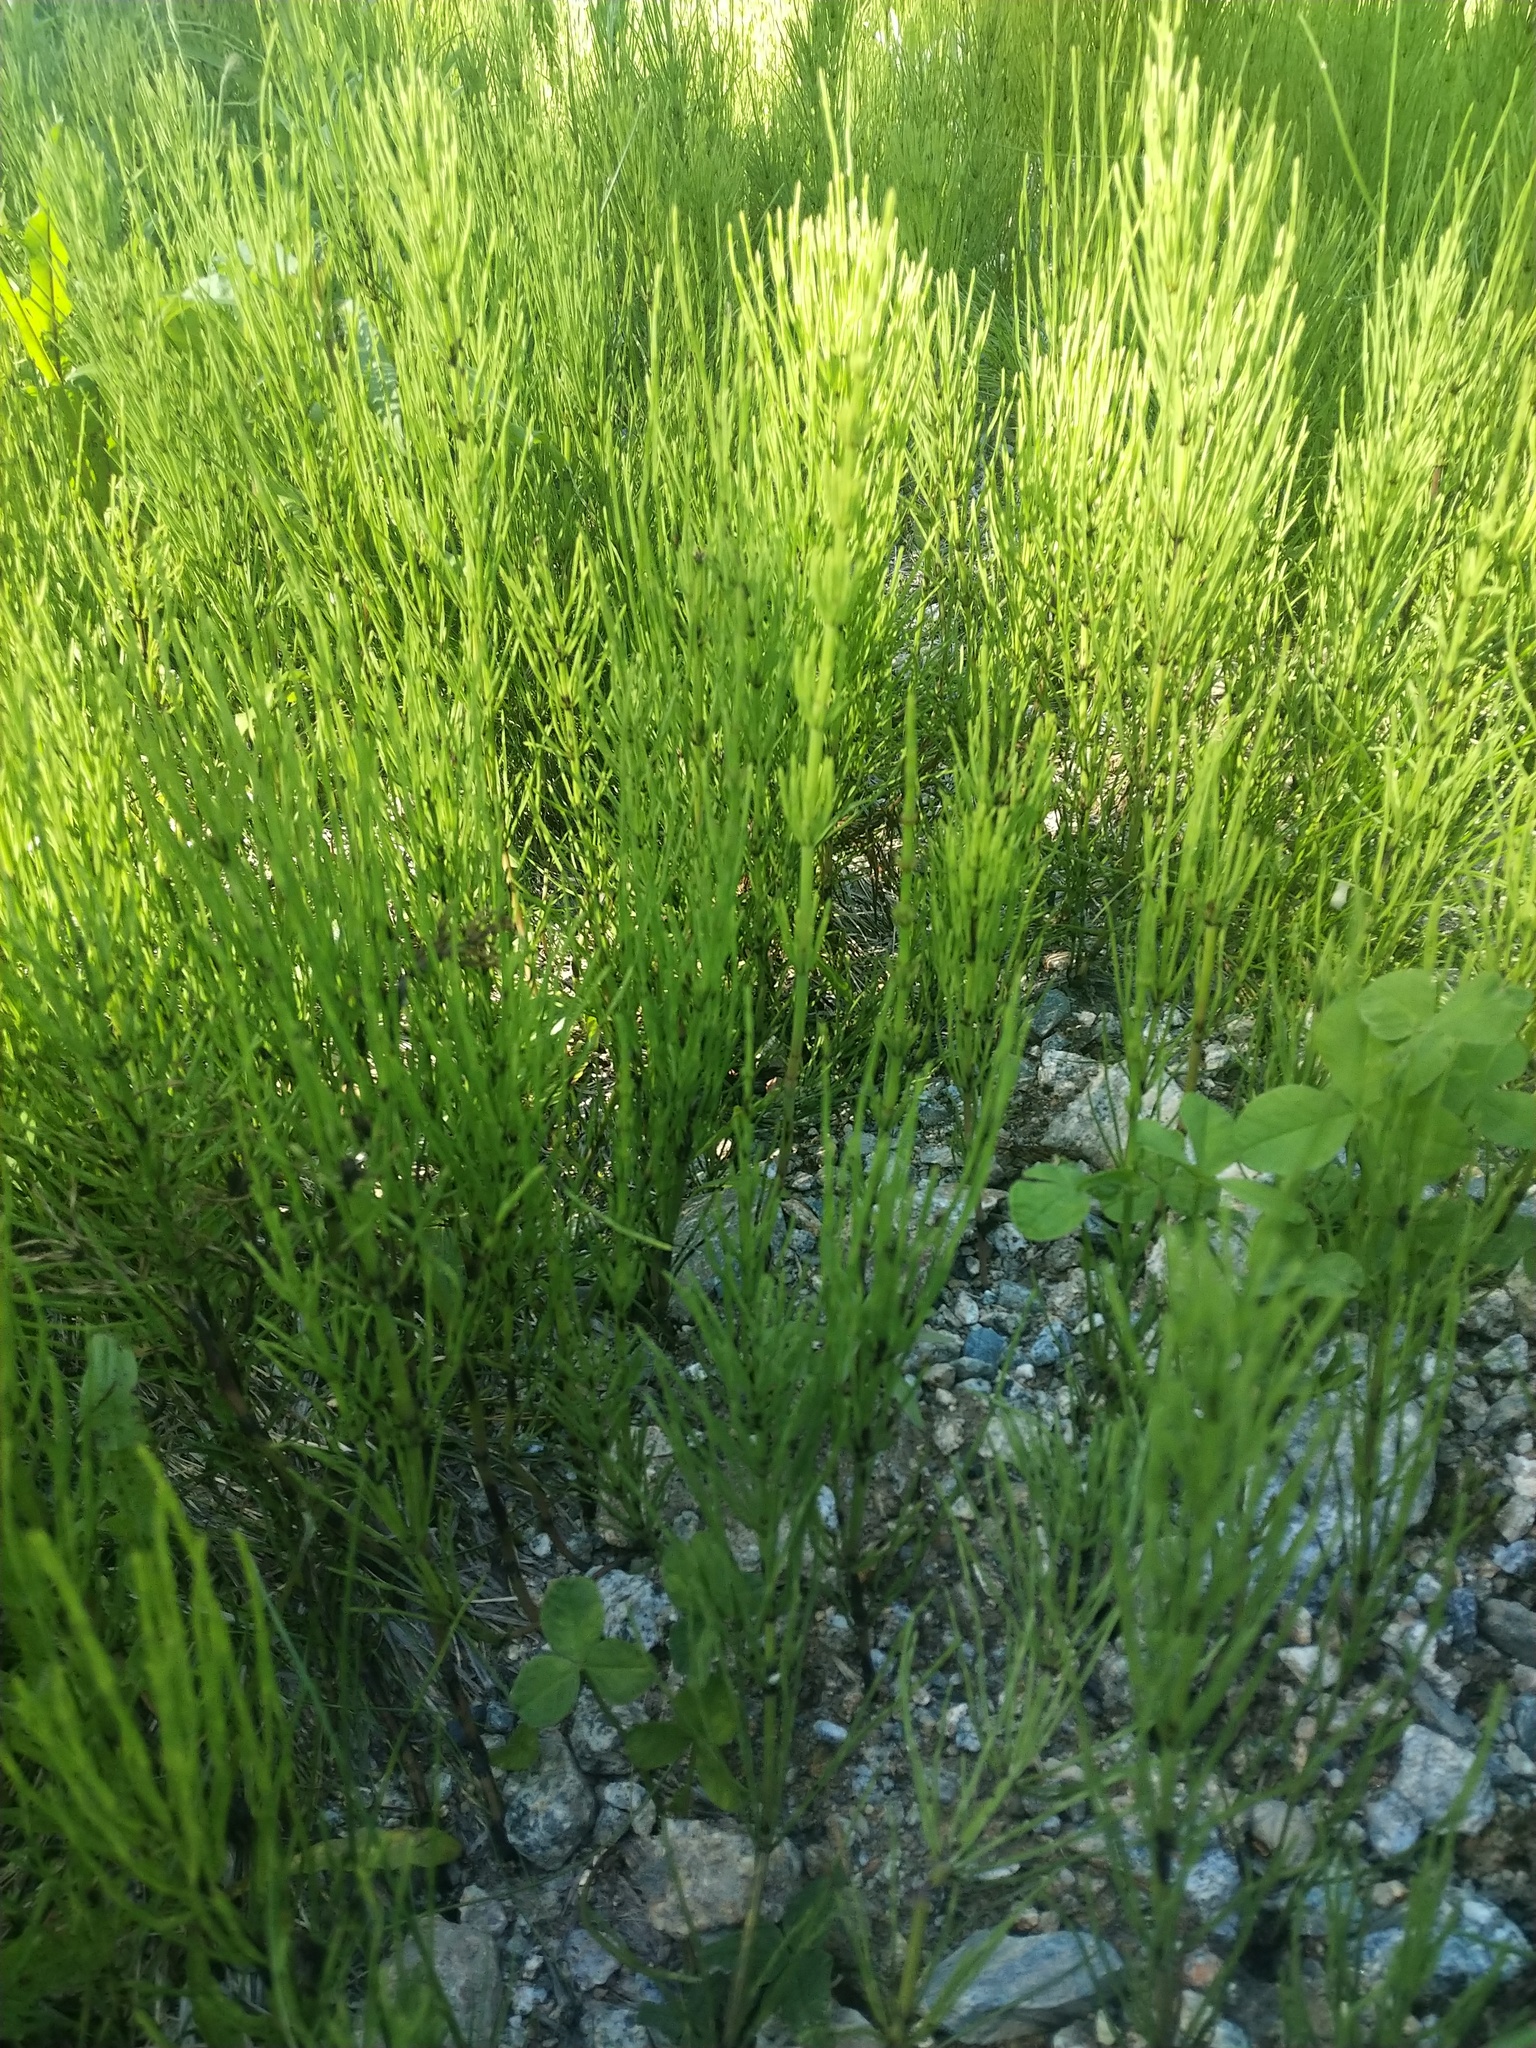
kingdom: Plantae
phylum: Tracheophyta
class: Polypodiopsida
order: Equisetales
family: Equisetaceae
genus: Equisetum
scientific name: Equisetum arvense
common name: Field horsetail
